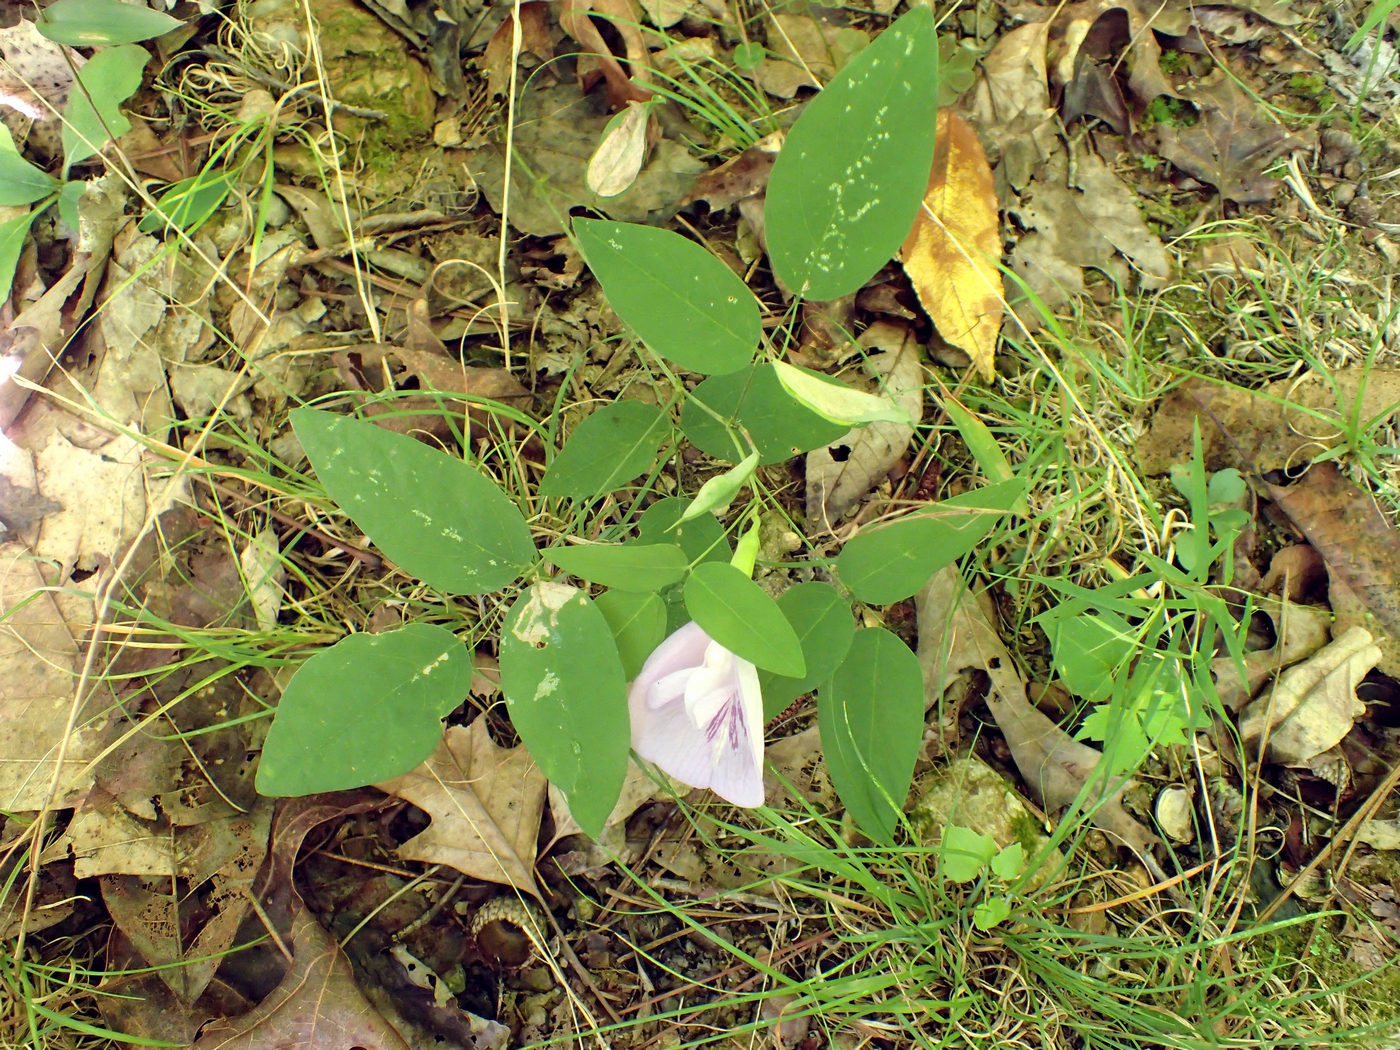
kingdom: Plantae
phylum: Tracheophyta
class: Magnoliopsida
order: Fabales
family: Fabaceae
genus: Clitoria
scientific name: Clitoria mariana
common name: Butterfly-pea
